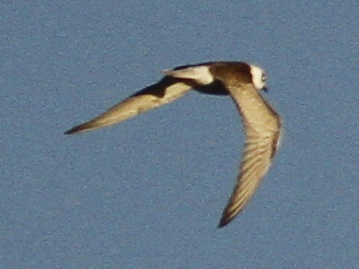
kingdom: Animalia
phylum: Chordata
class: Aves
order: Charadriiformes
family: Laridae
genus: Chlidonias
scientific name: Chlidonias leucopterus
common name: White-winged tern
